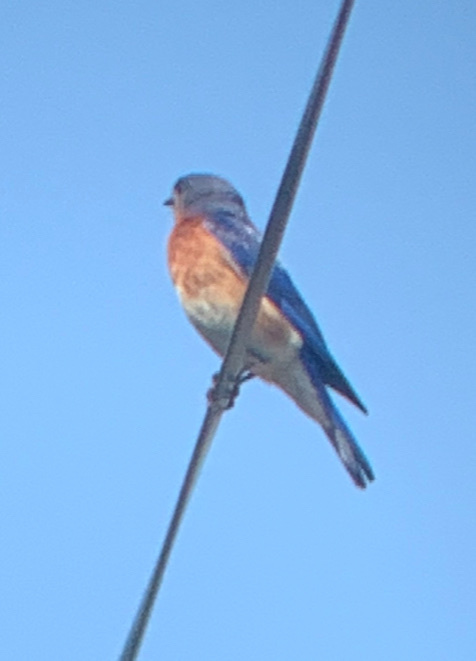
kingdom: Animalia
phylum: Chordata
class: Aves
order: Passeriformes
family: Turdidae
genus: Sialia
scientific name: Sialia sialis
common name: Eastern bluebird
